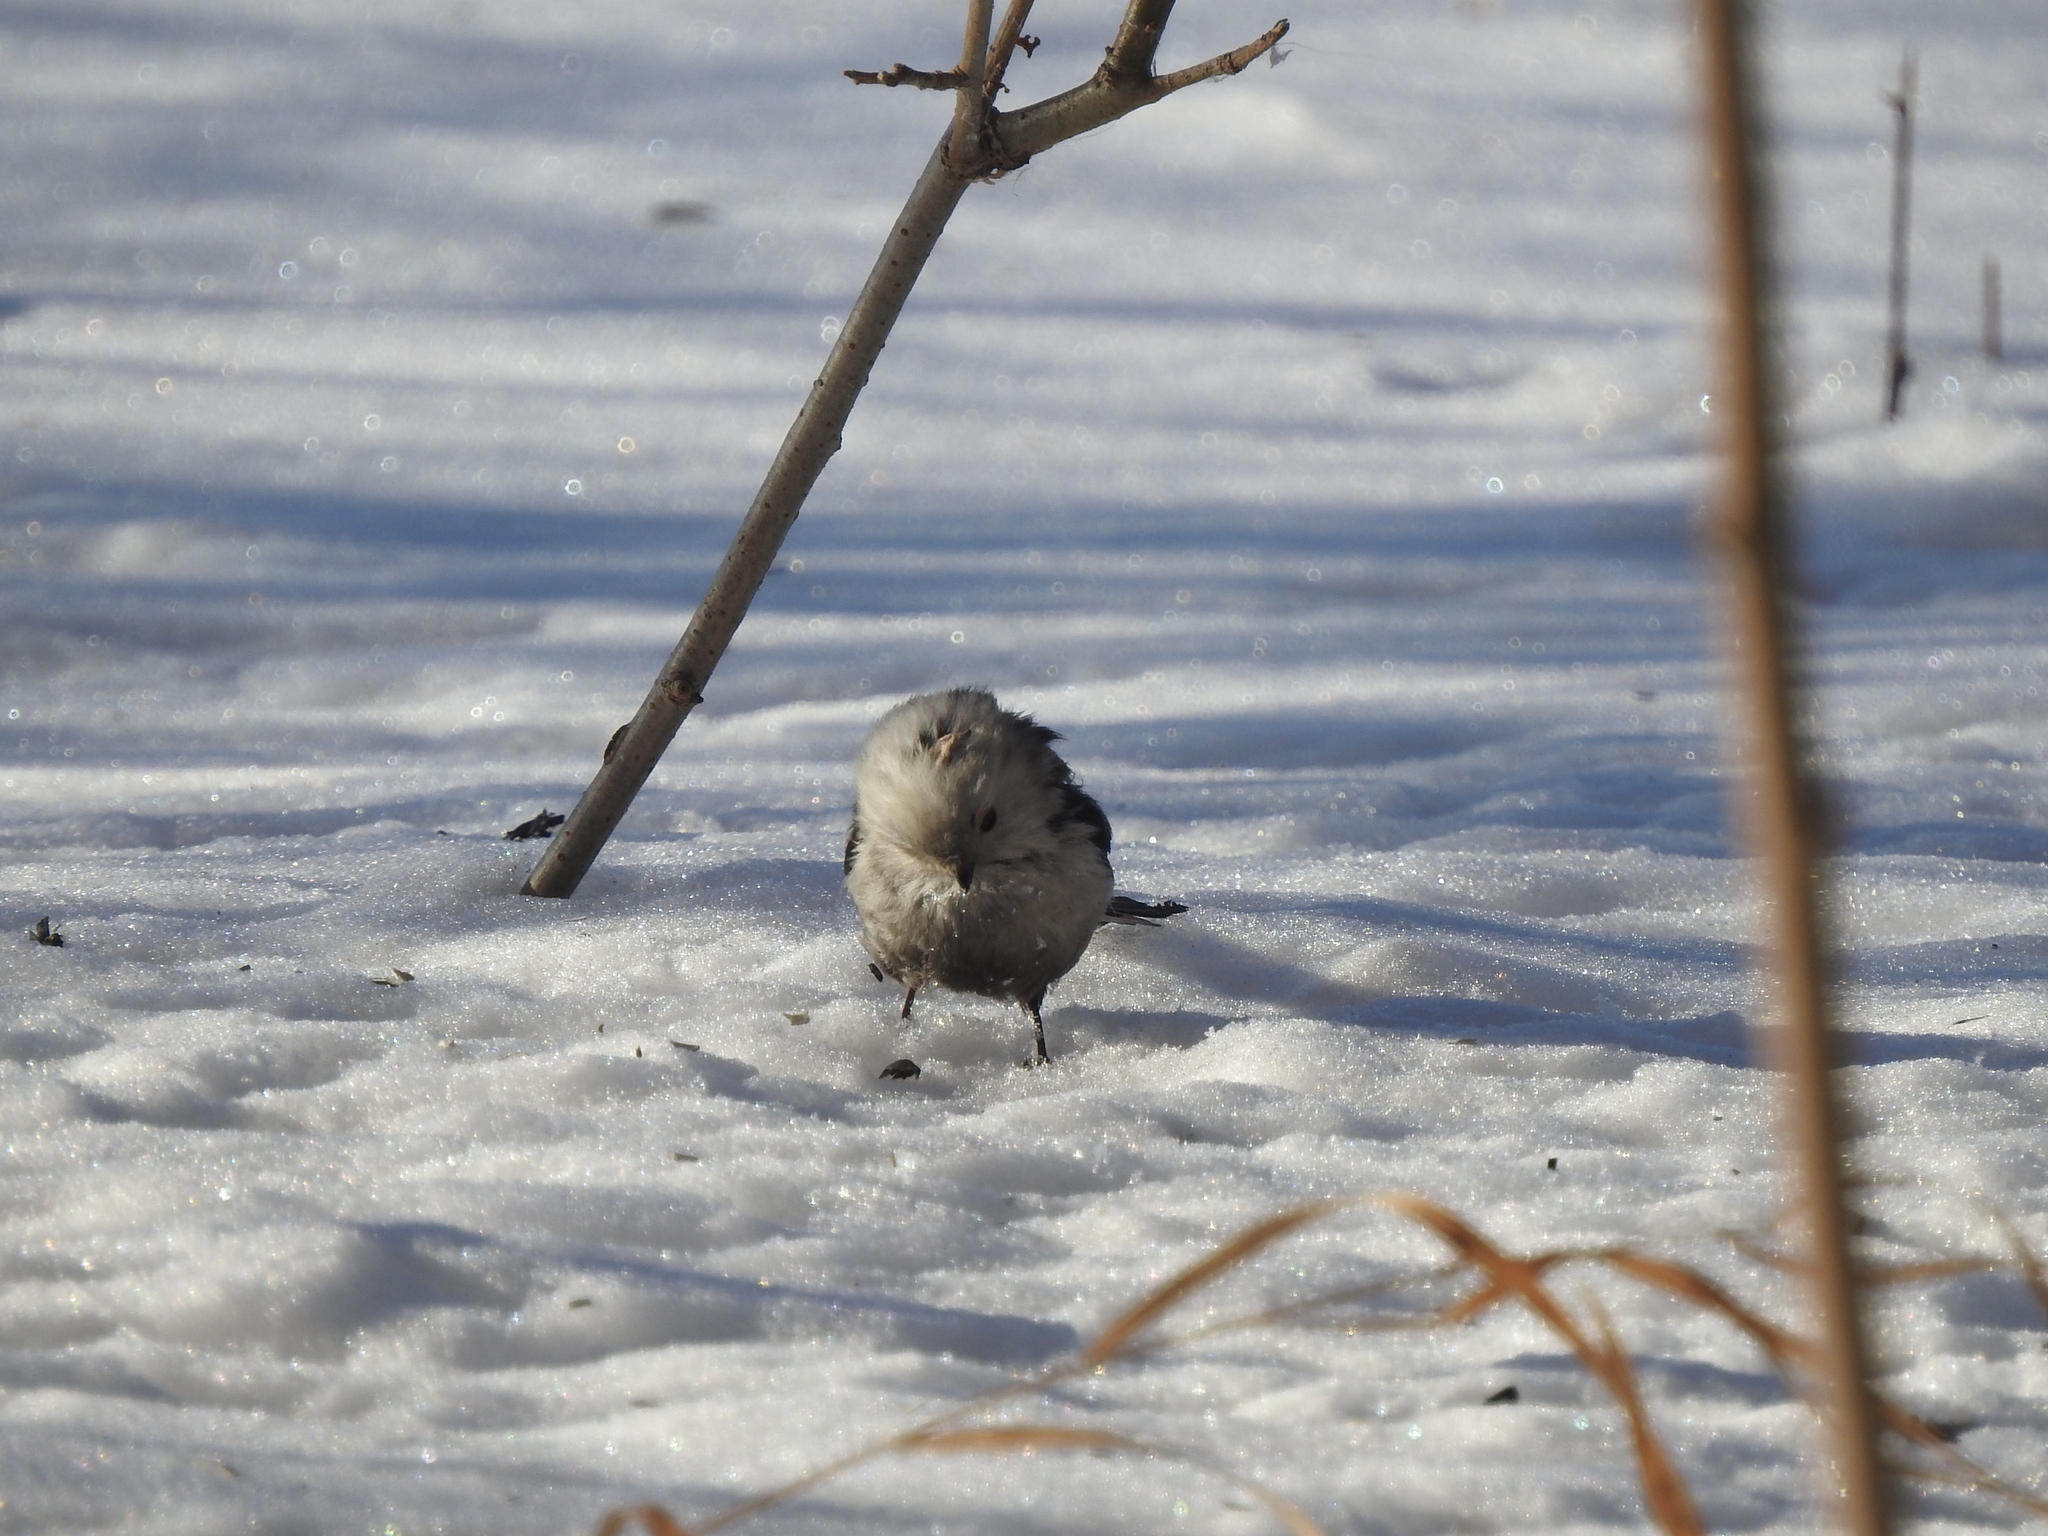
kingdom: Animalia
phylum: Chordata
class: Aves
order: Passeriformes
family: Aegithalidae
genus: Aegithalos
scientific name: Aegithalos caudatus
